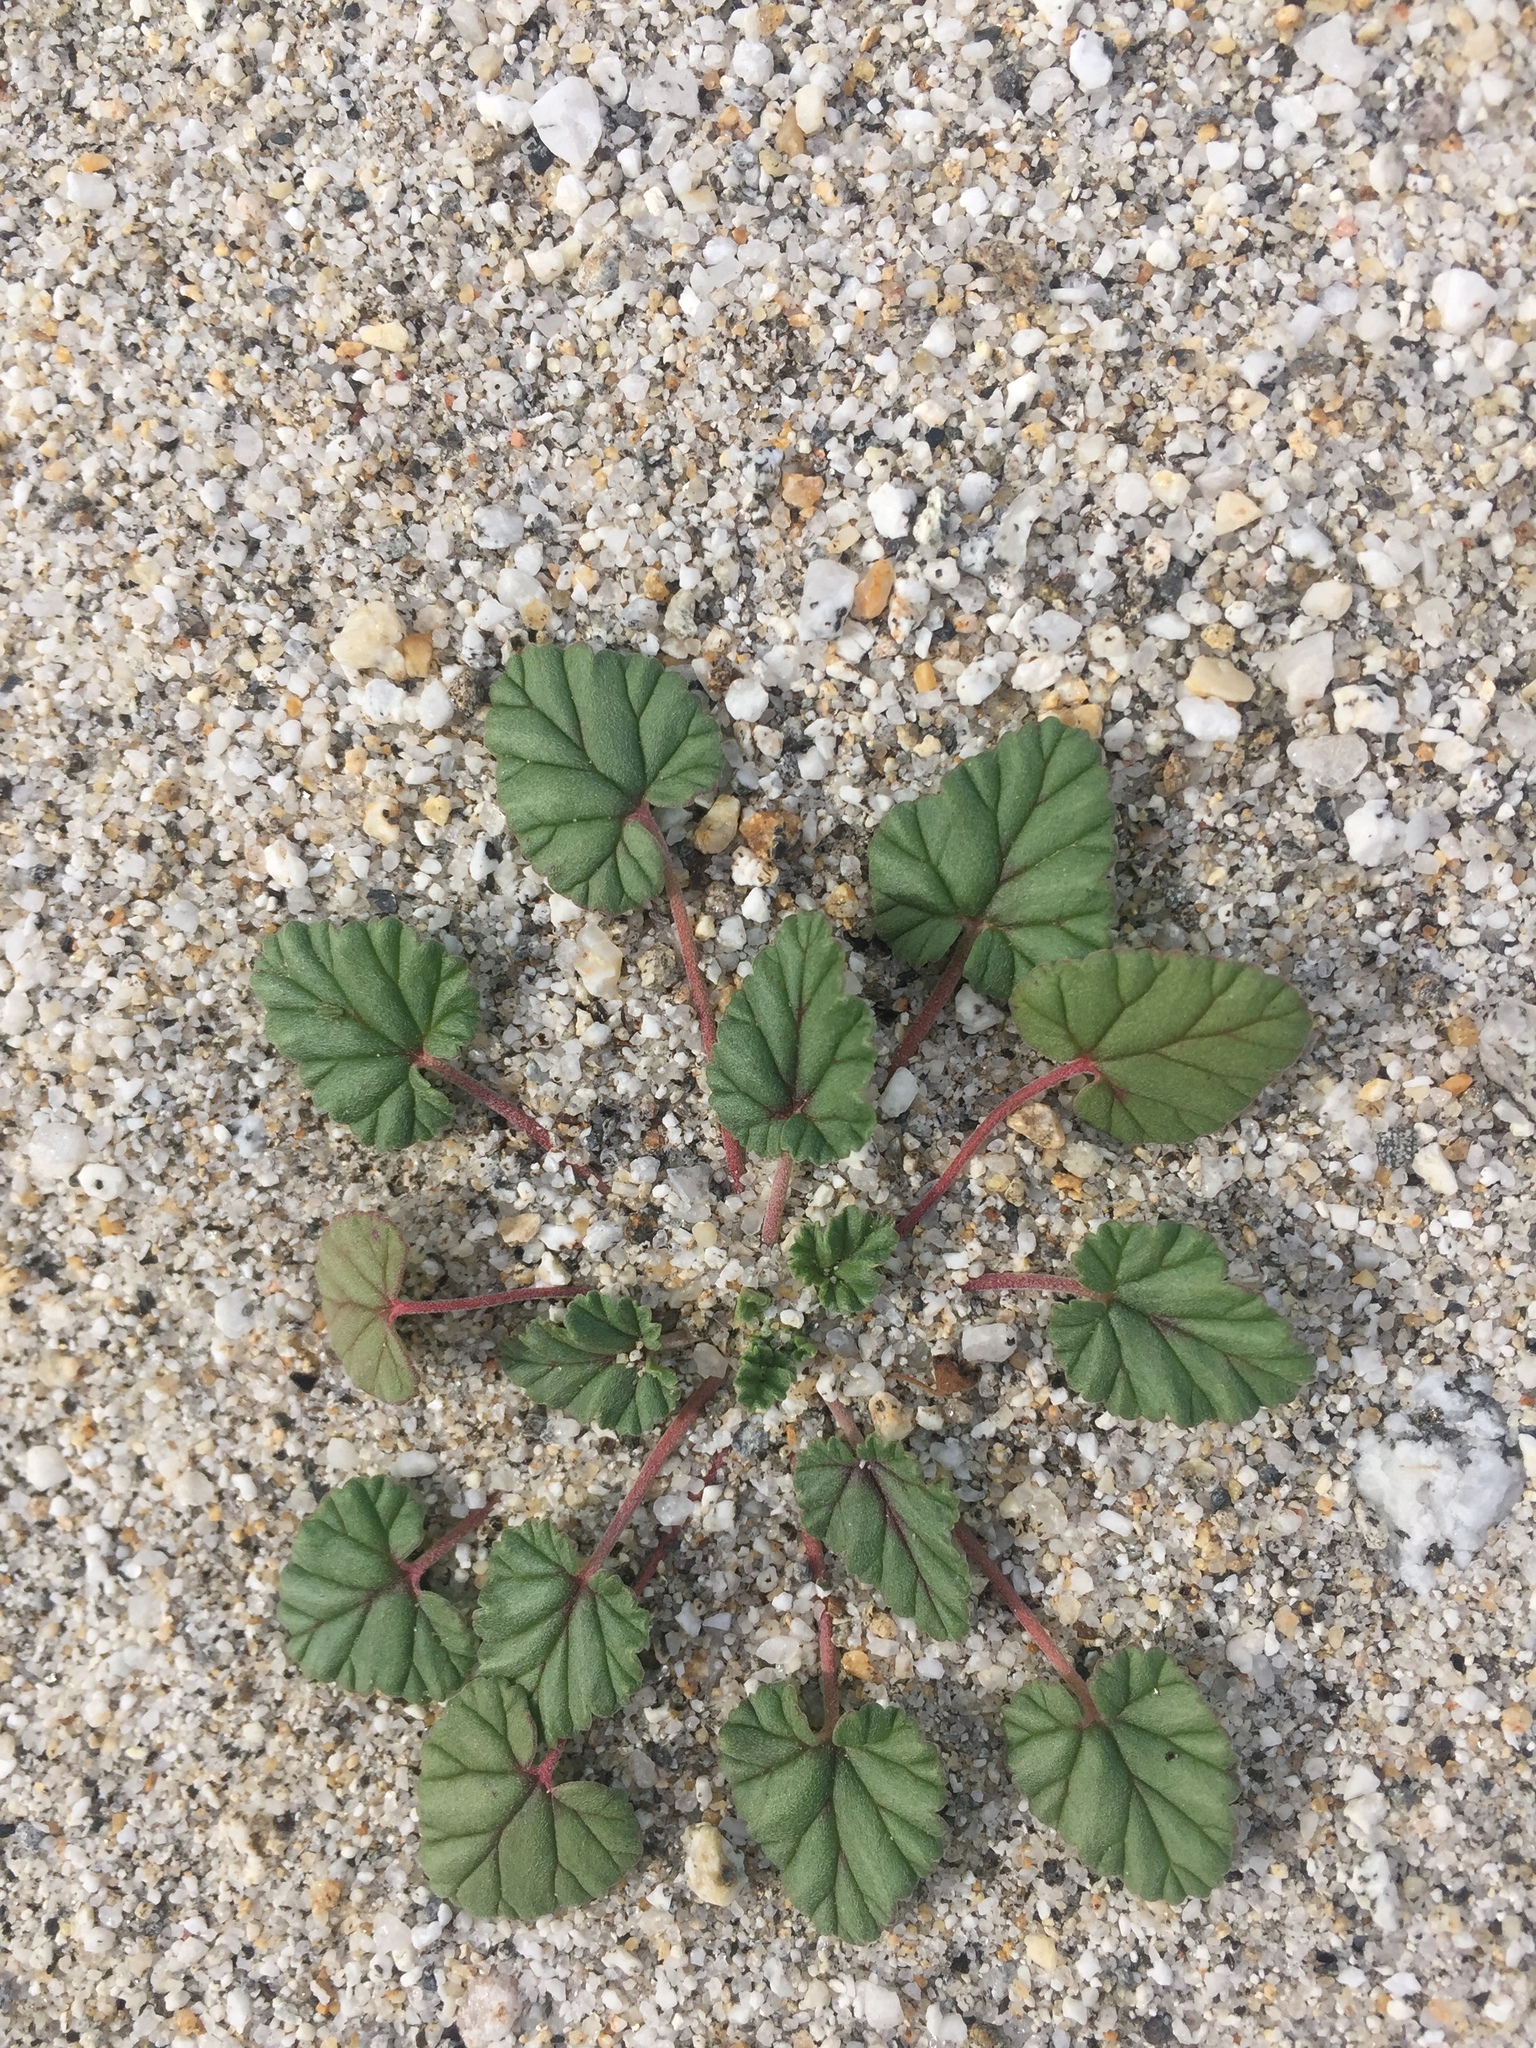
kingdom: Plantae
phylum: Tracheophyta
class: Magnoliopsida
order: Geraniales
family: Geraniaceae
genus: Erodium
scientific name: Erodium texanum
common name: Texas stork's-bill
